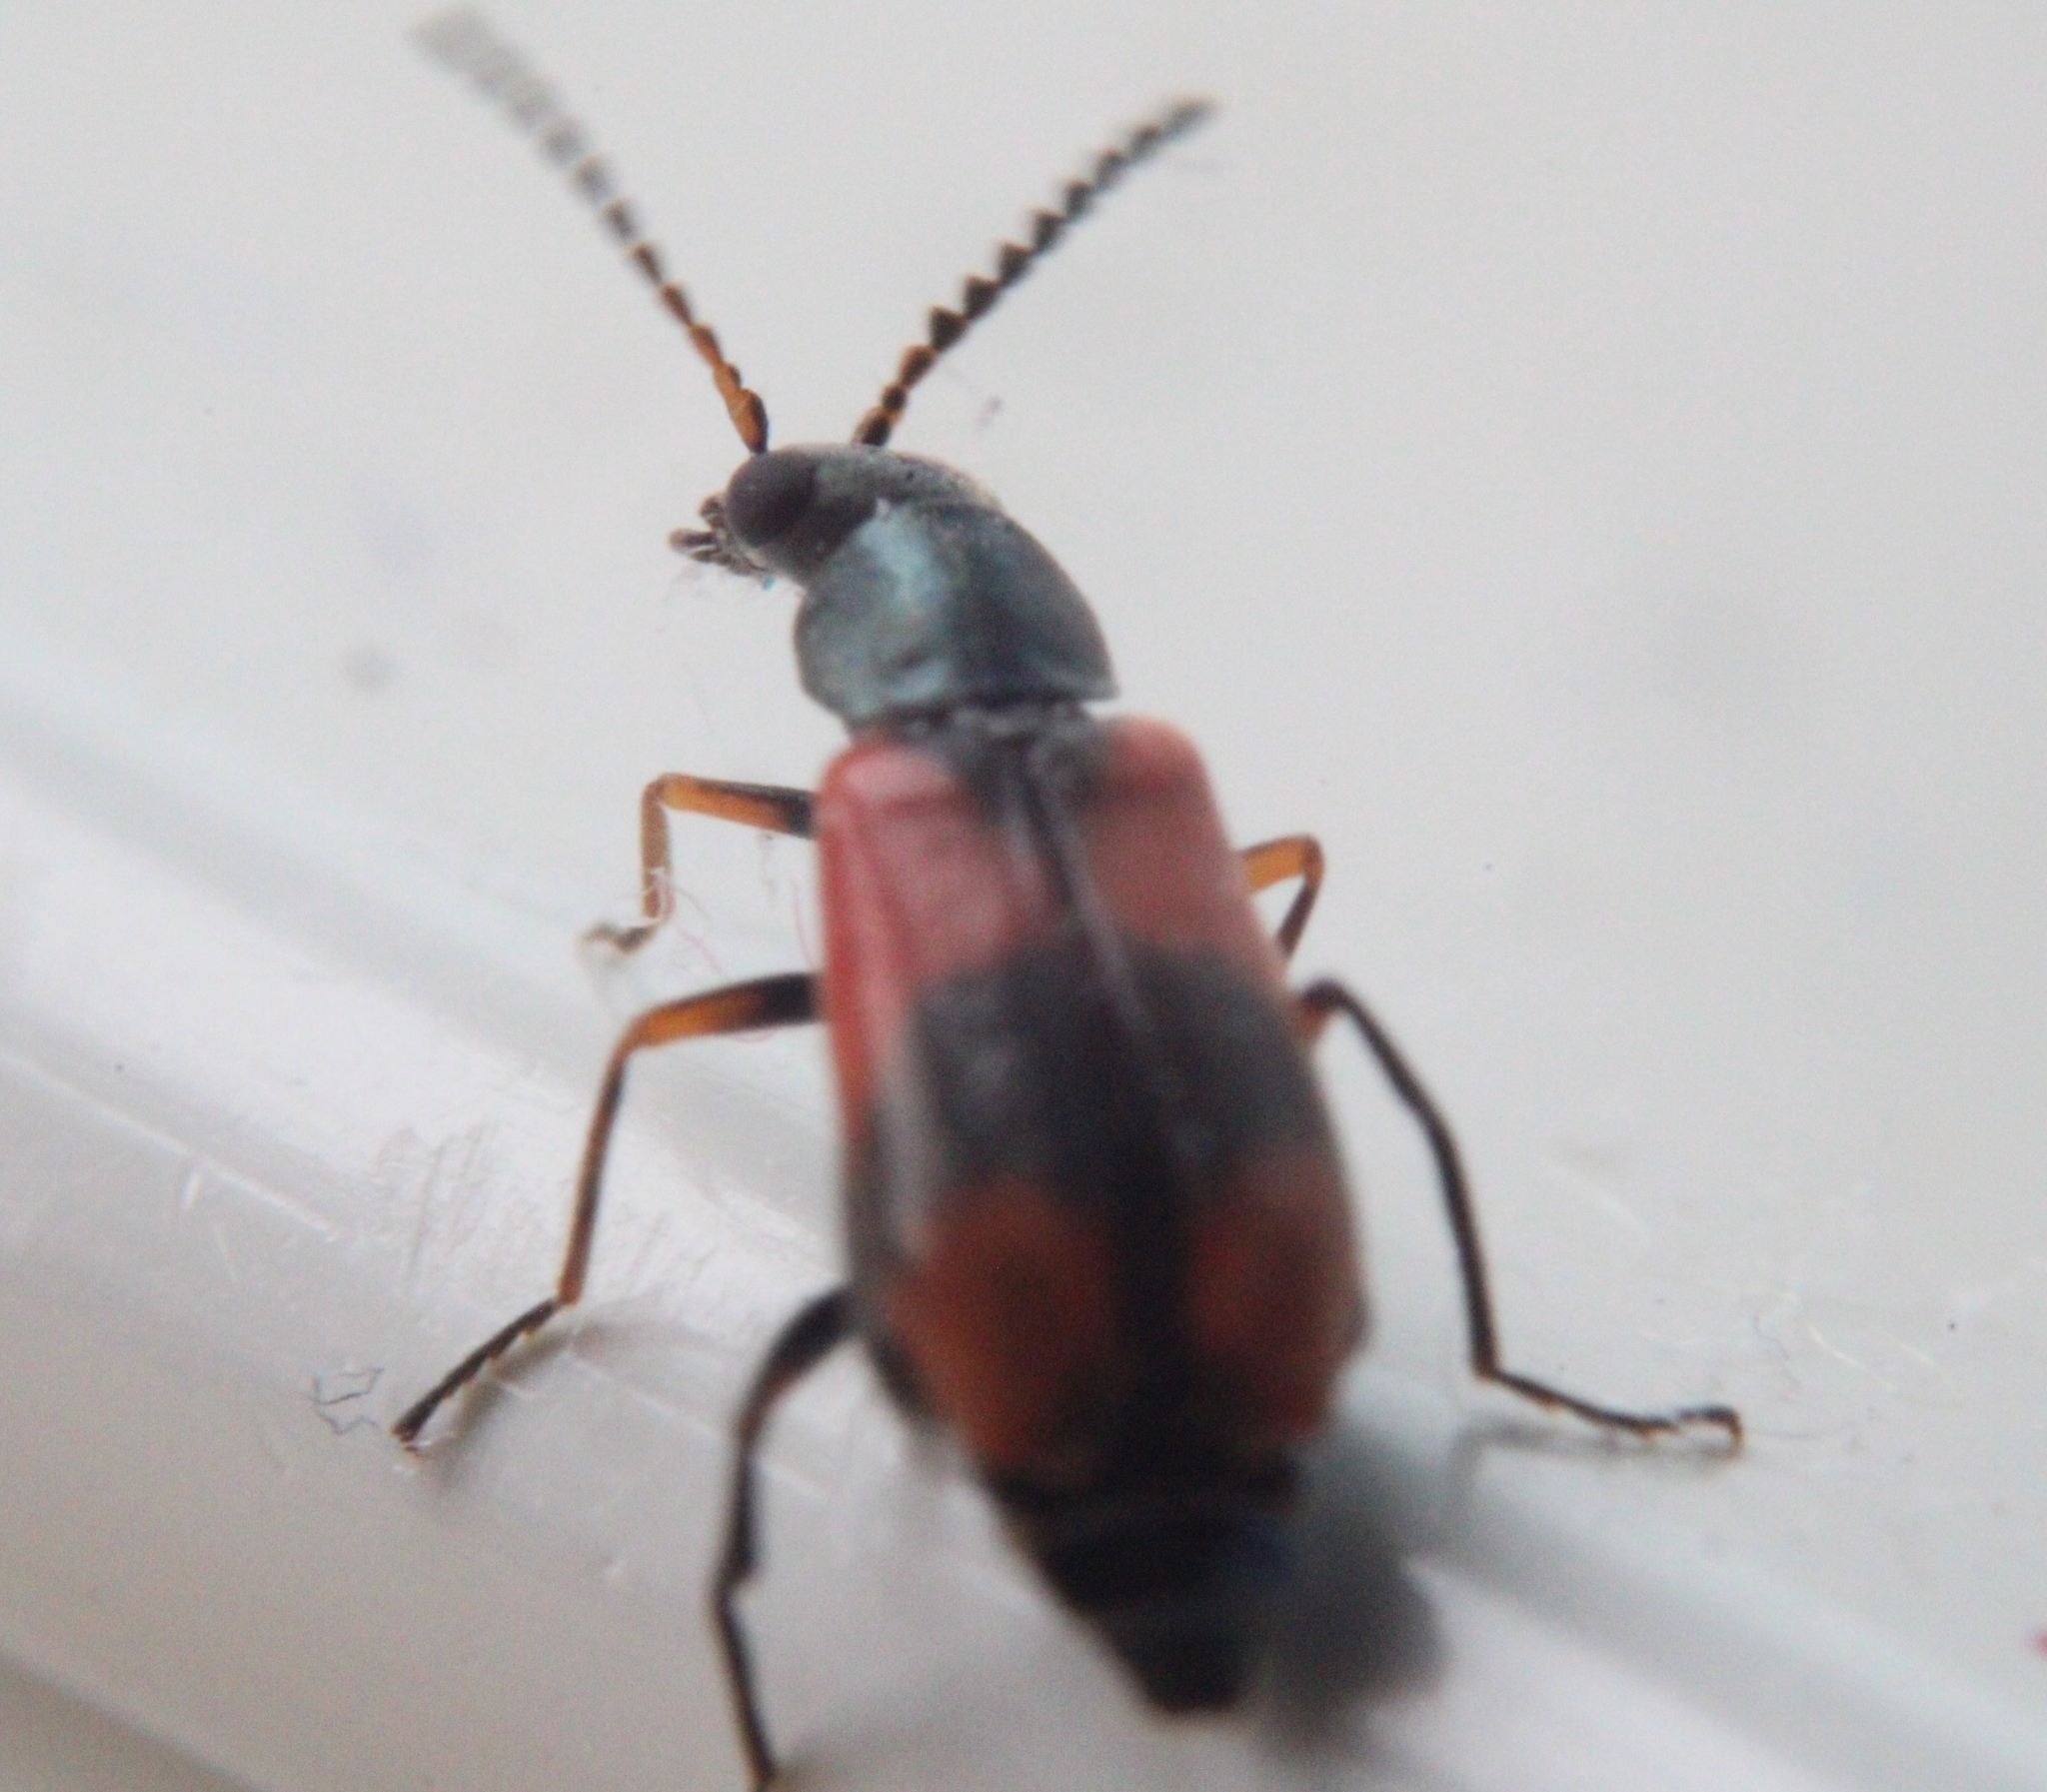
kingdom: Animalia
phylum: Arthropoda
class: Insecta
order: Coleoptera
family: Melyridae
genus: Anthocomus
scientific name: Anthocomus equestris
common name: Black-banded soft-winged flower beetle
